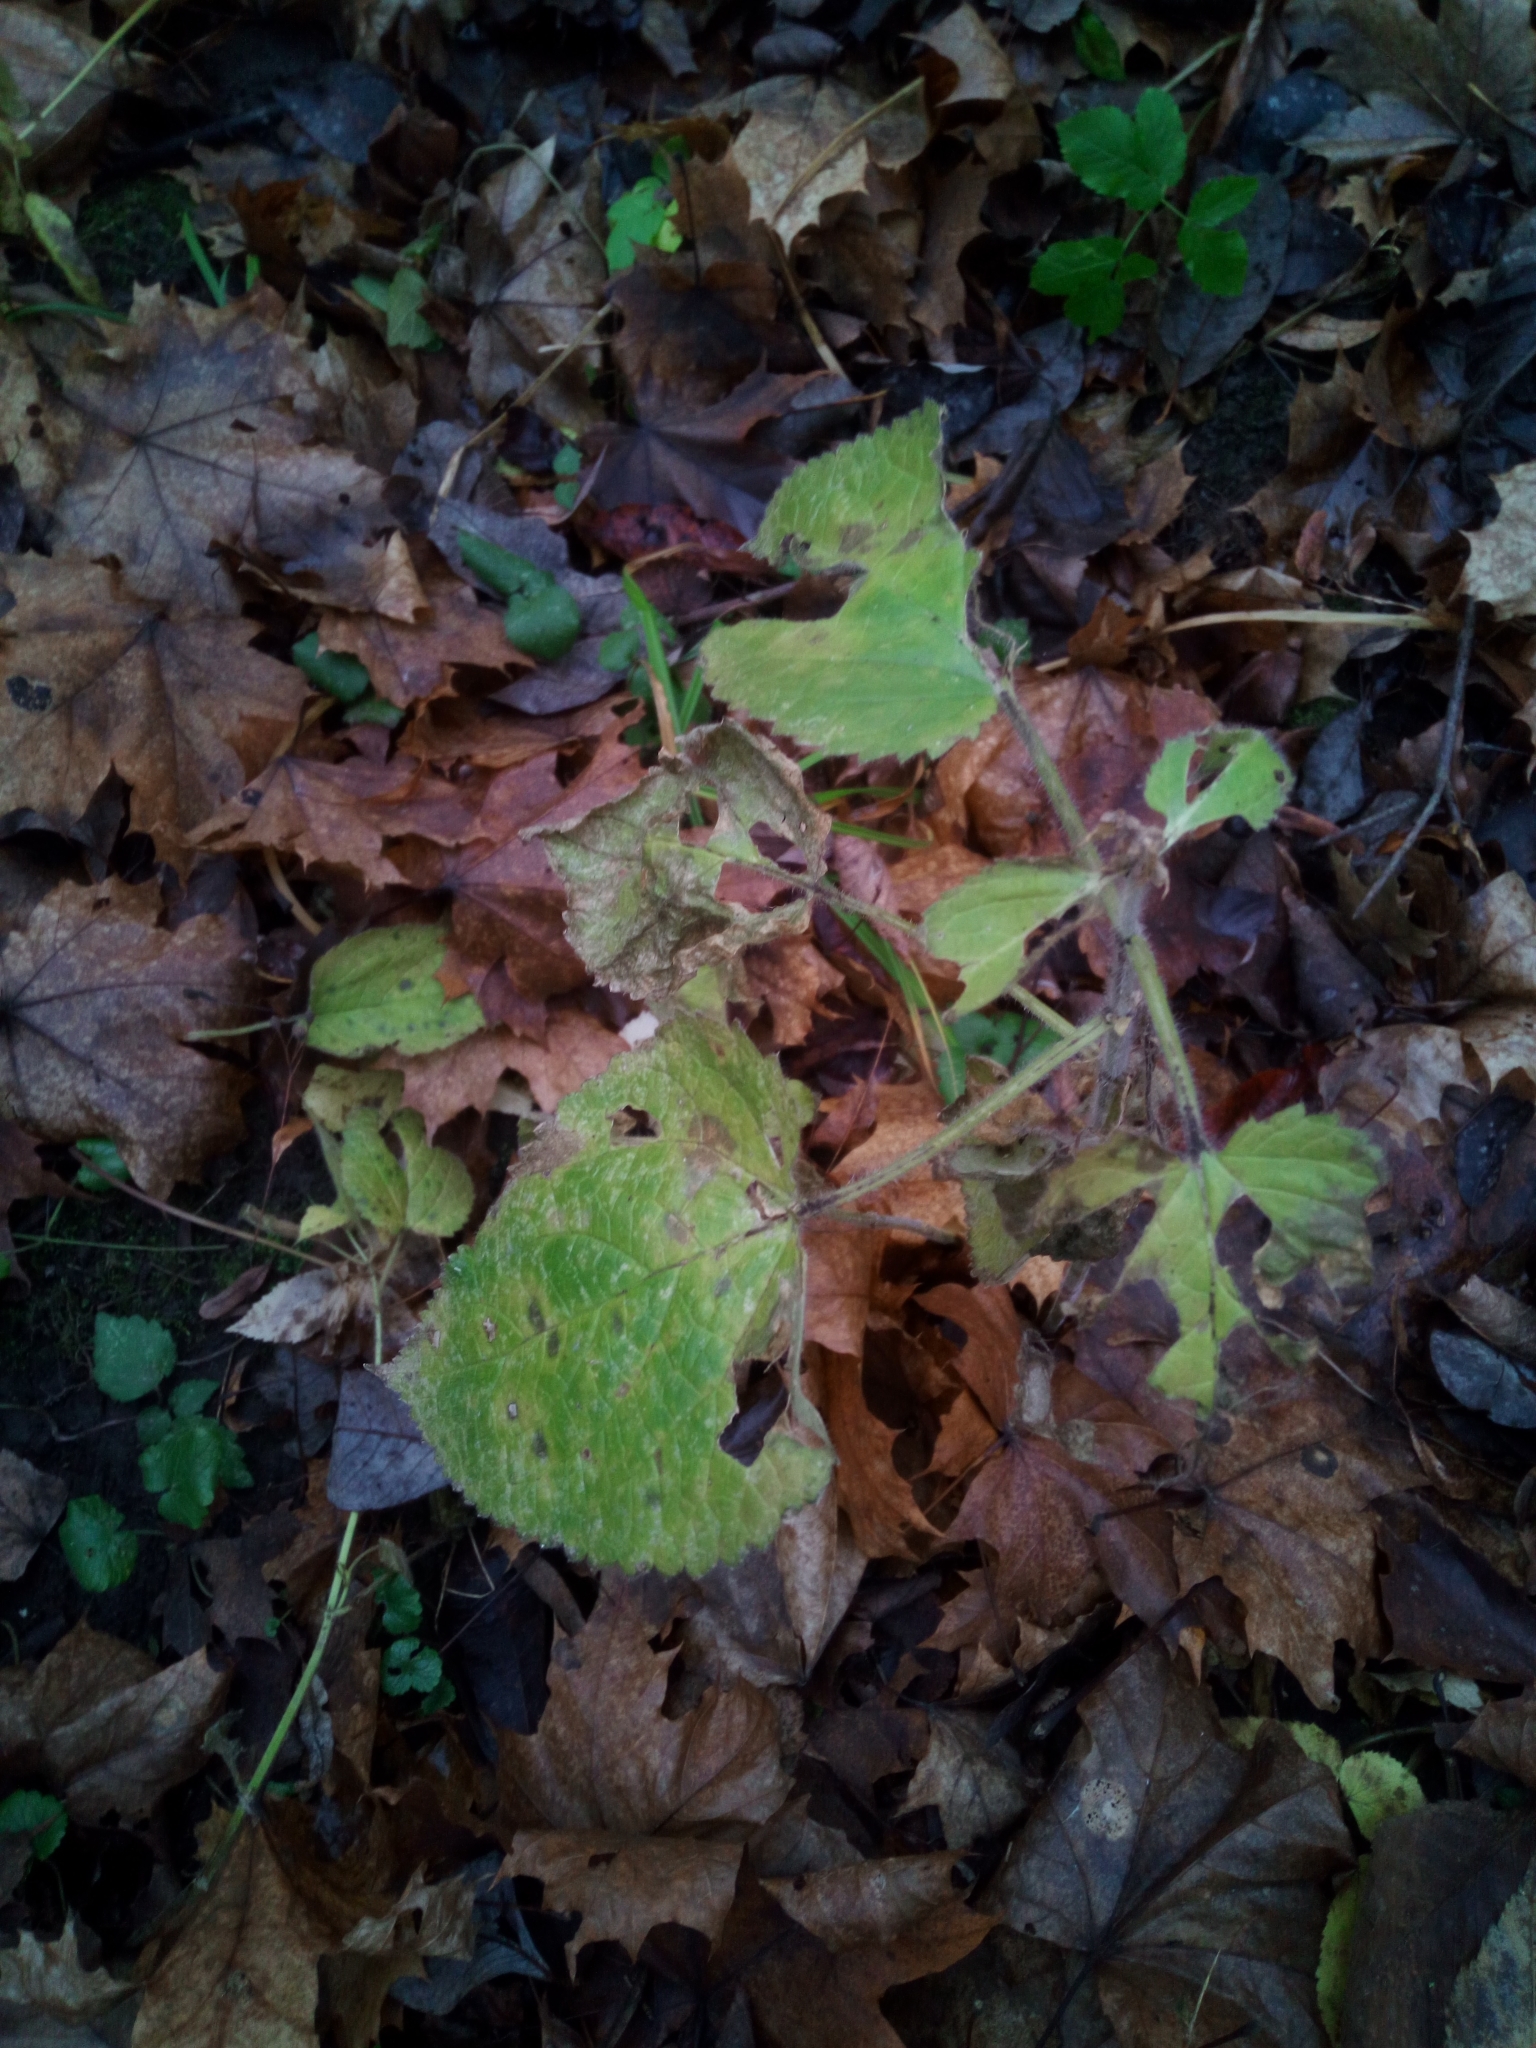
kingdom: Plantae
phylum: Tracheophyta
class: Magnoliopsida
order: Lamiales
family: Lamiaceae
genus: Stachys
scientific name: Stachys sylvatica
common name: Hedge woundwort
